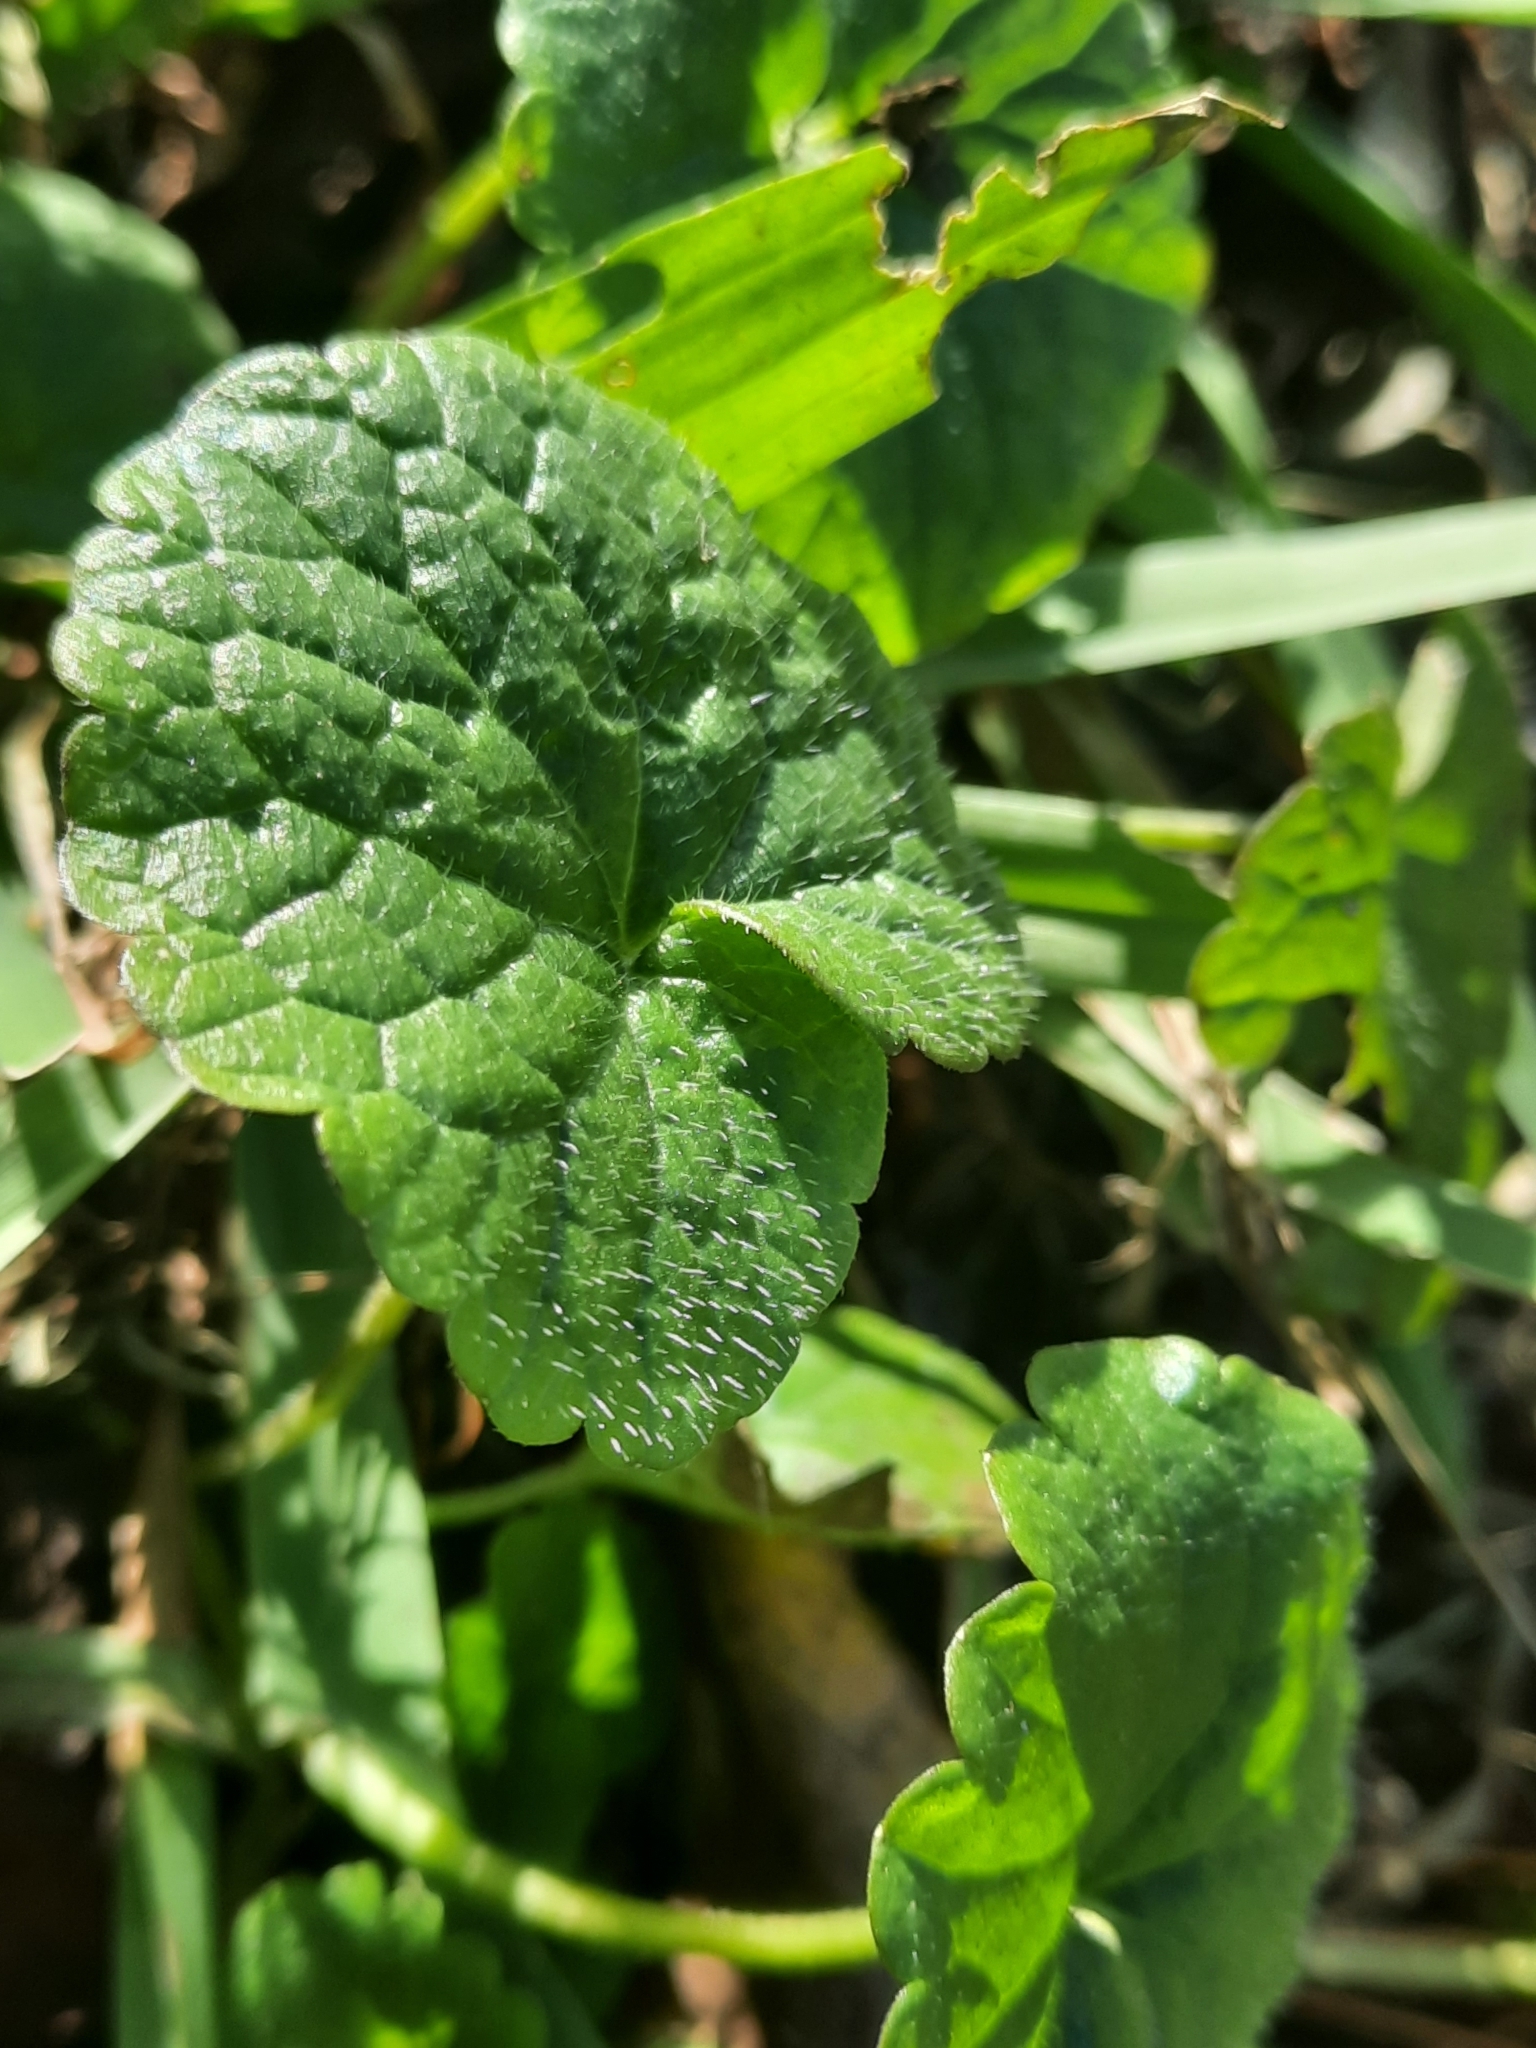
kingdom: Plantae
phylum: Tracheophyta
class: Magnoliopsida
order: Lamiales
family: Lamiaceae
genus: Glechoma
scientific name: Glechoma hederacea
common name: Ground ivy
